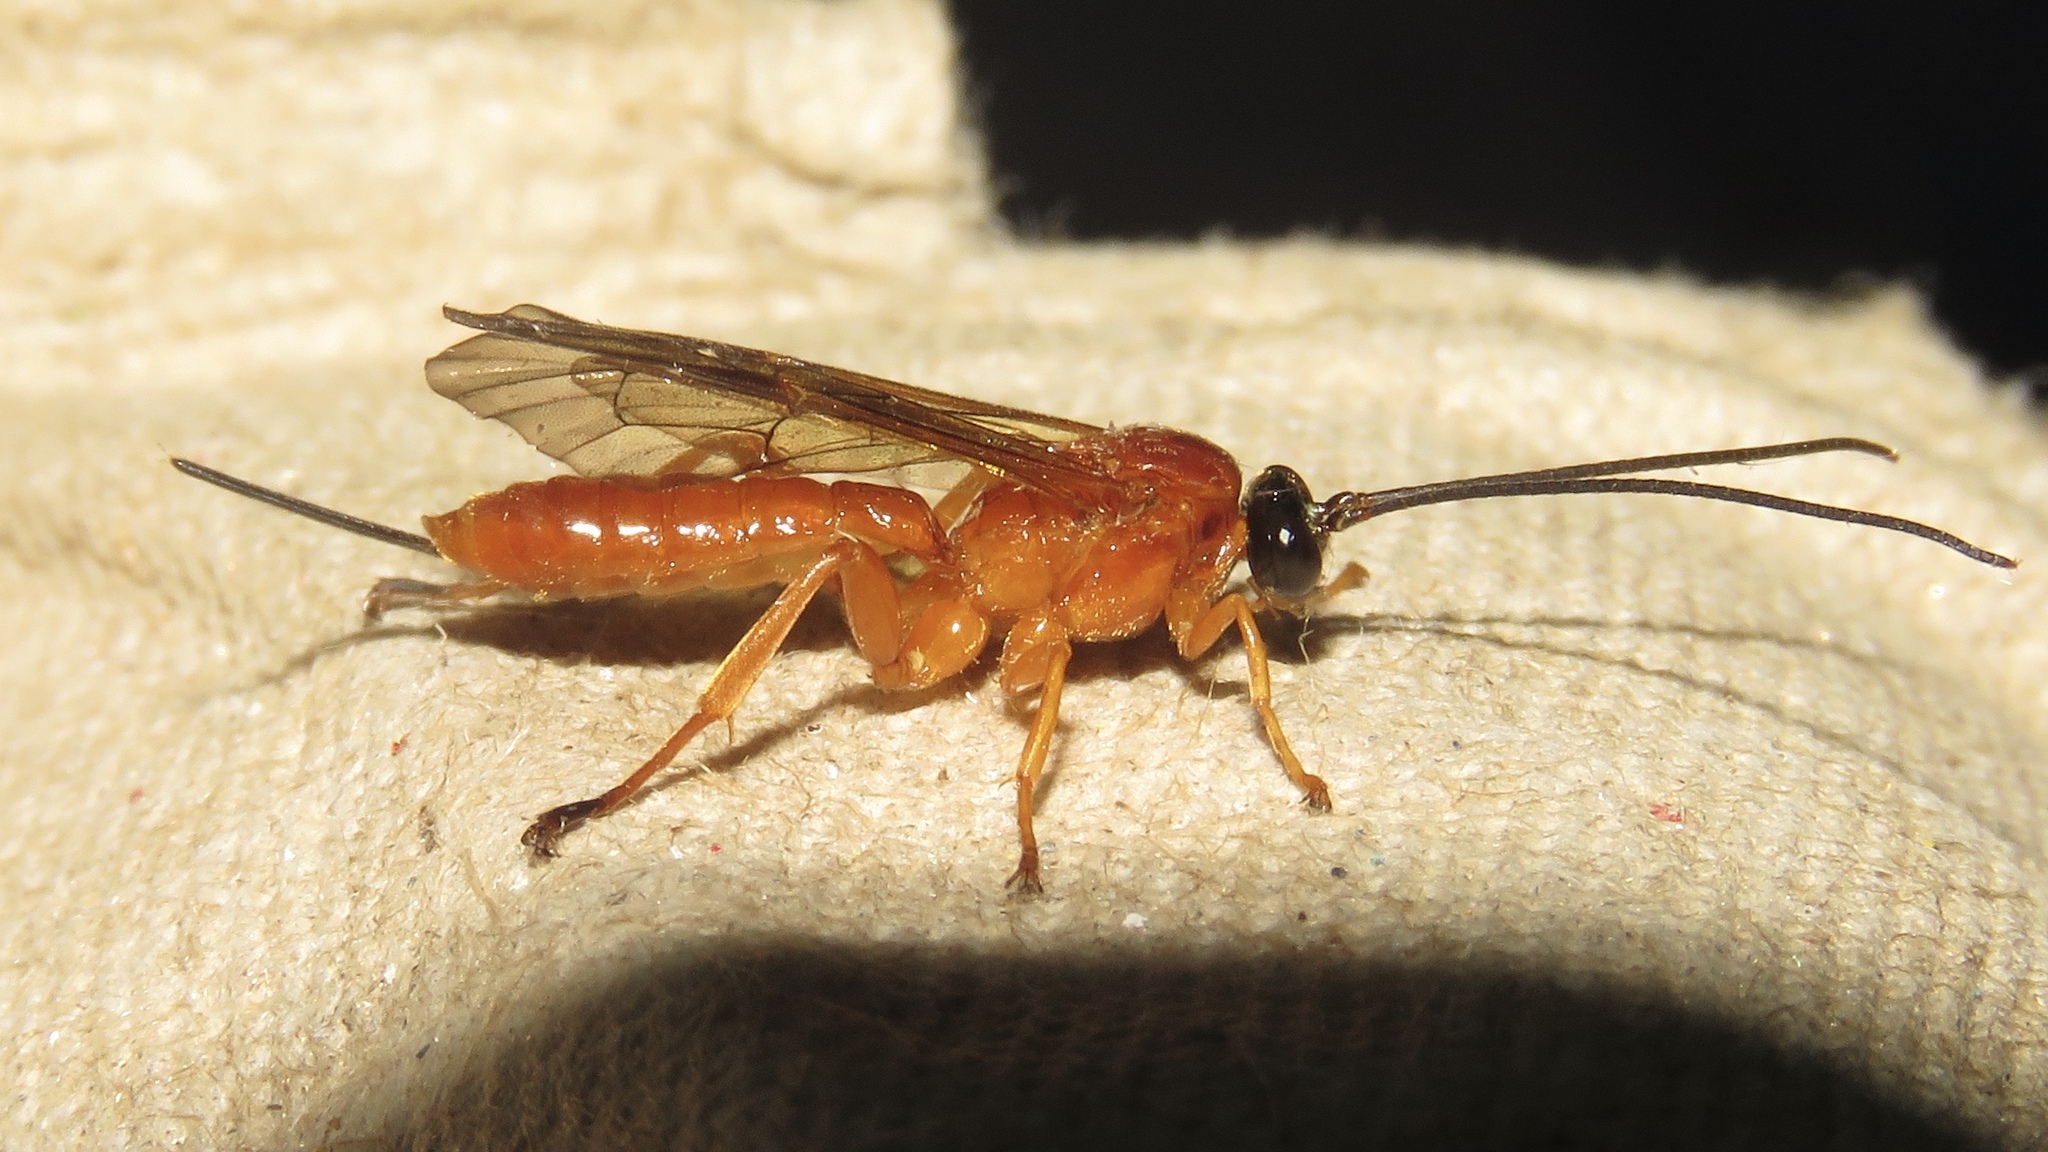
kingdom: Animalia
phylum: Arthropoda
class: Insecta
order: Hymenoptera
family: Ichneumonidae
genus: Theronia
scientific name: Theronia hilaris
